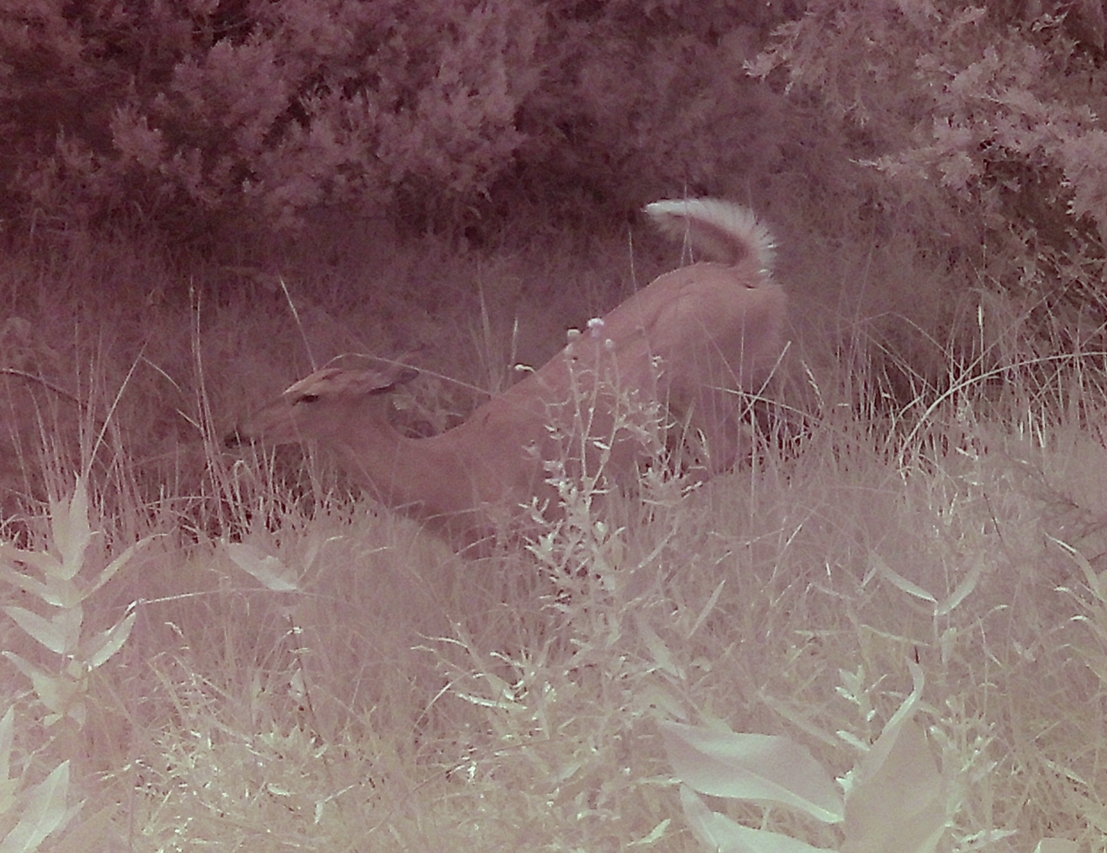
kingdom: Animalia
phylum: Chordata
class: Mammalia
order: Artiodactyla
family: Cervidae
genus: Odocoileus
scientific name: Odocoileus virginianus
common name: White-tailed deer
